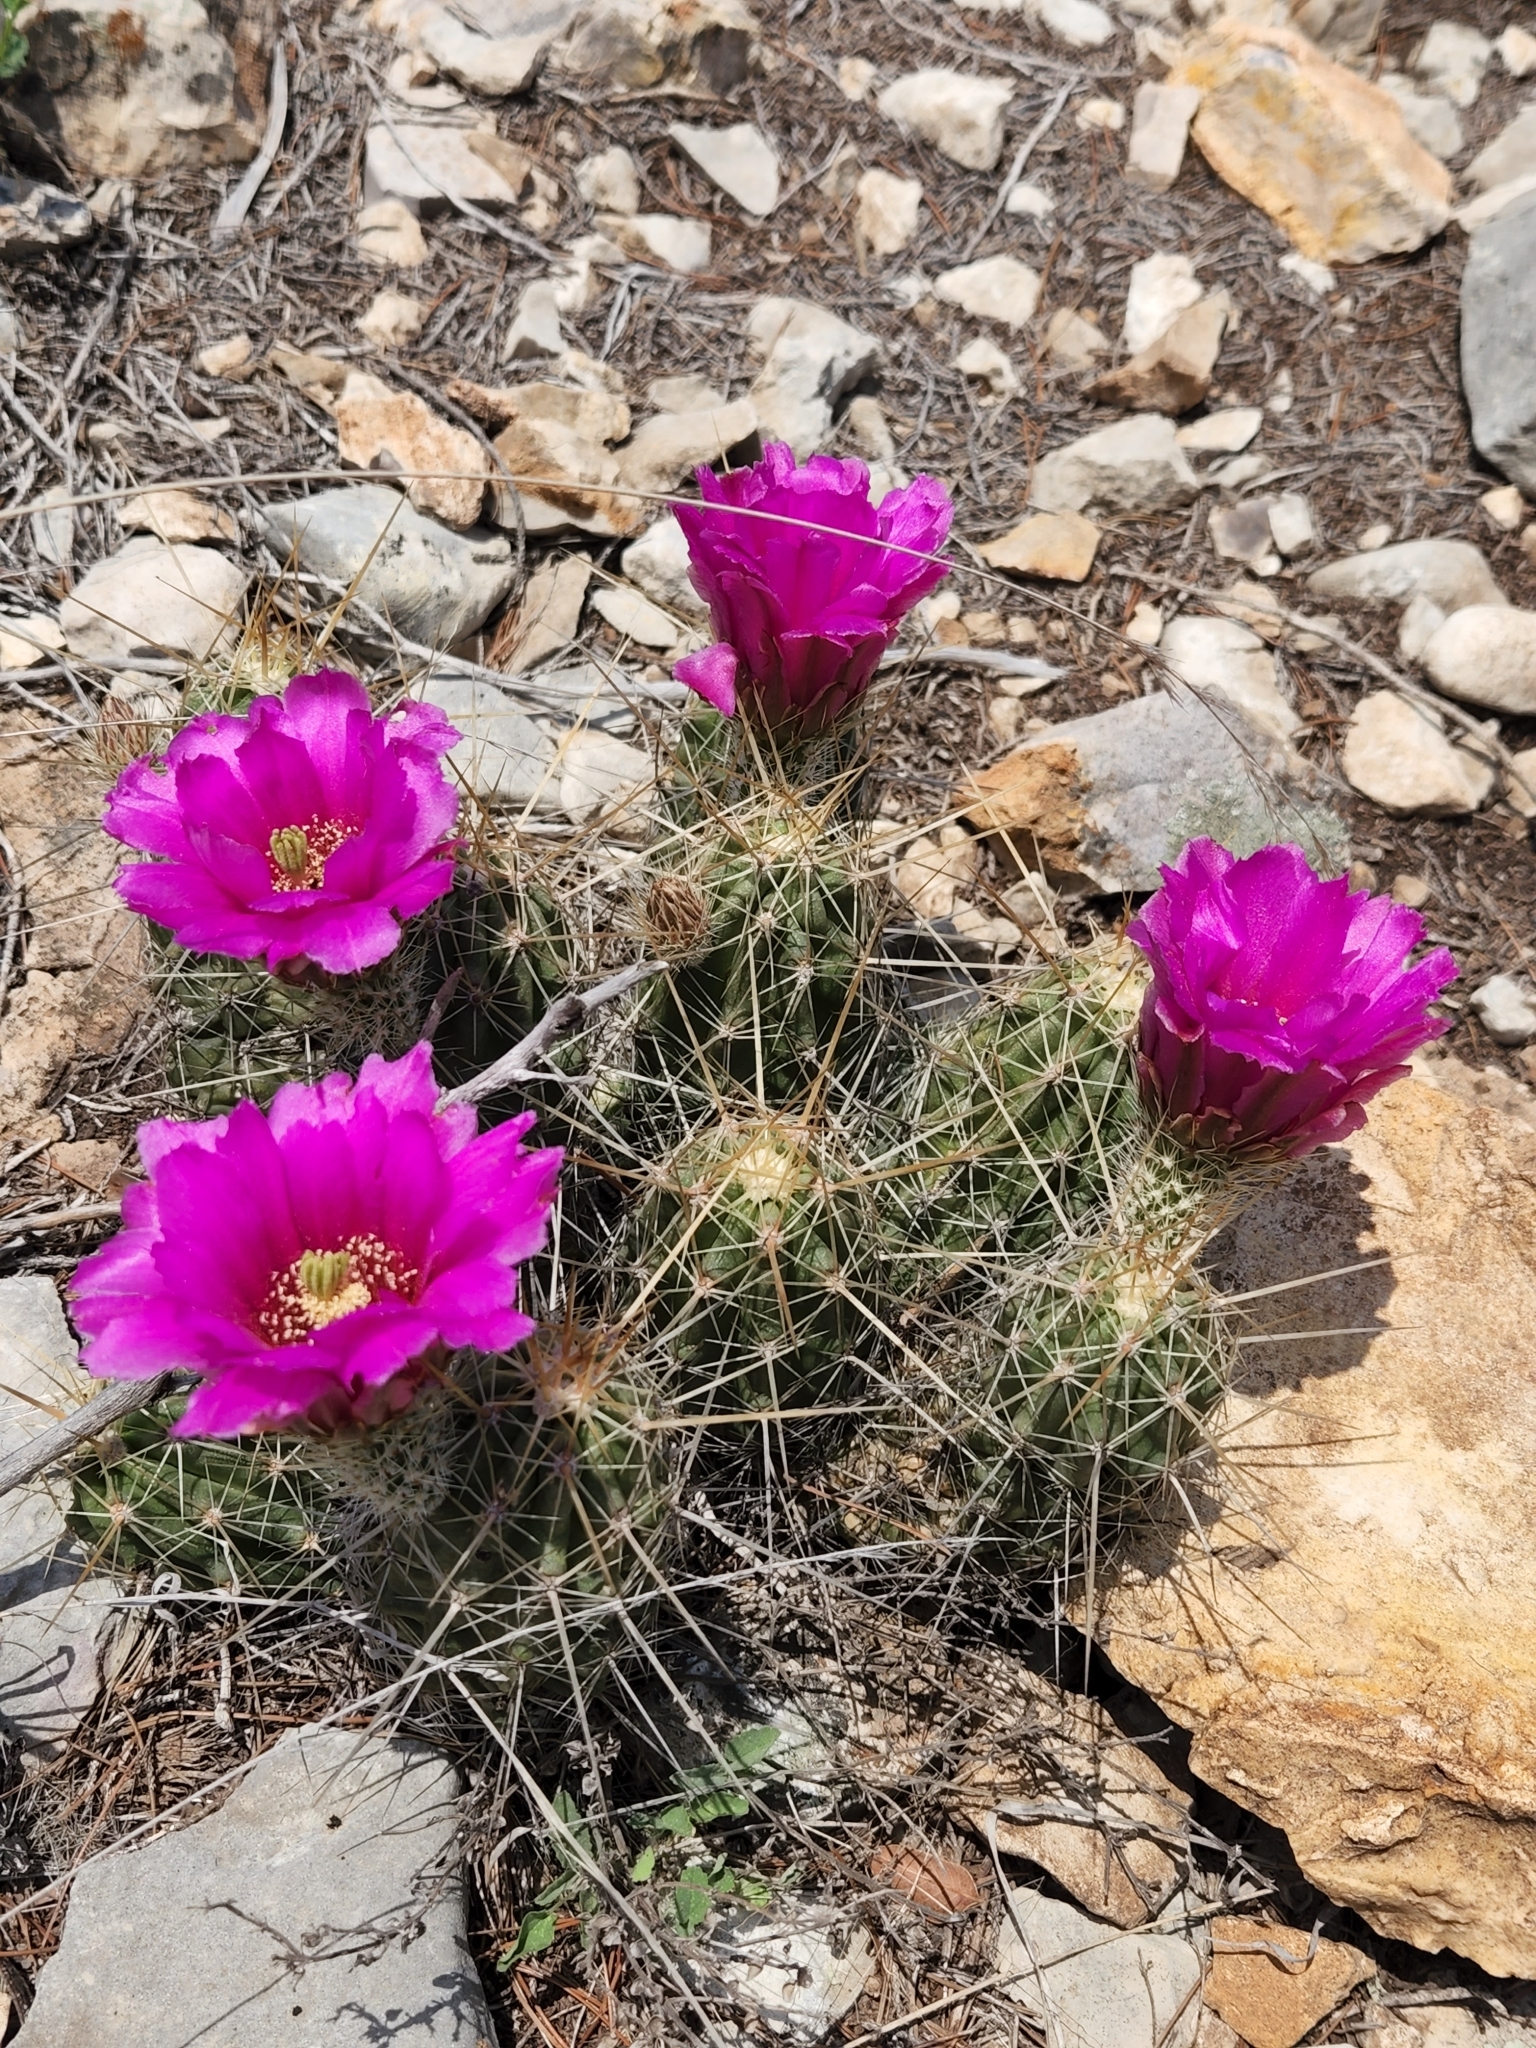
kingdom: Plantae
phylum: Tracheophyta
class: Magnoliopsida
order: Caryophyllales
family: Cactaceae
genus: Echinocereus
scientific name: Echinocereus enneacanthus
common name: Pitaya
